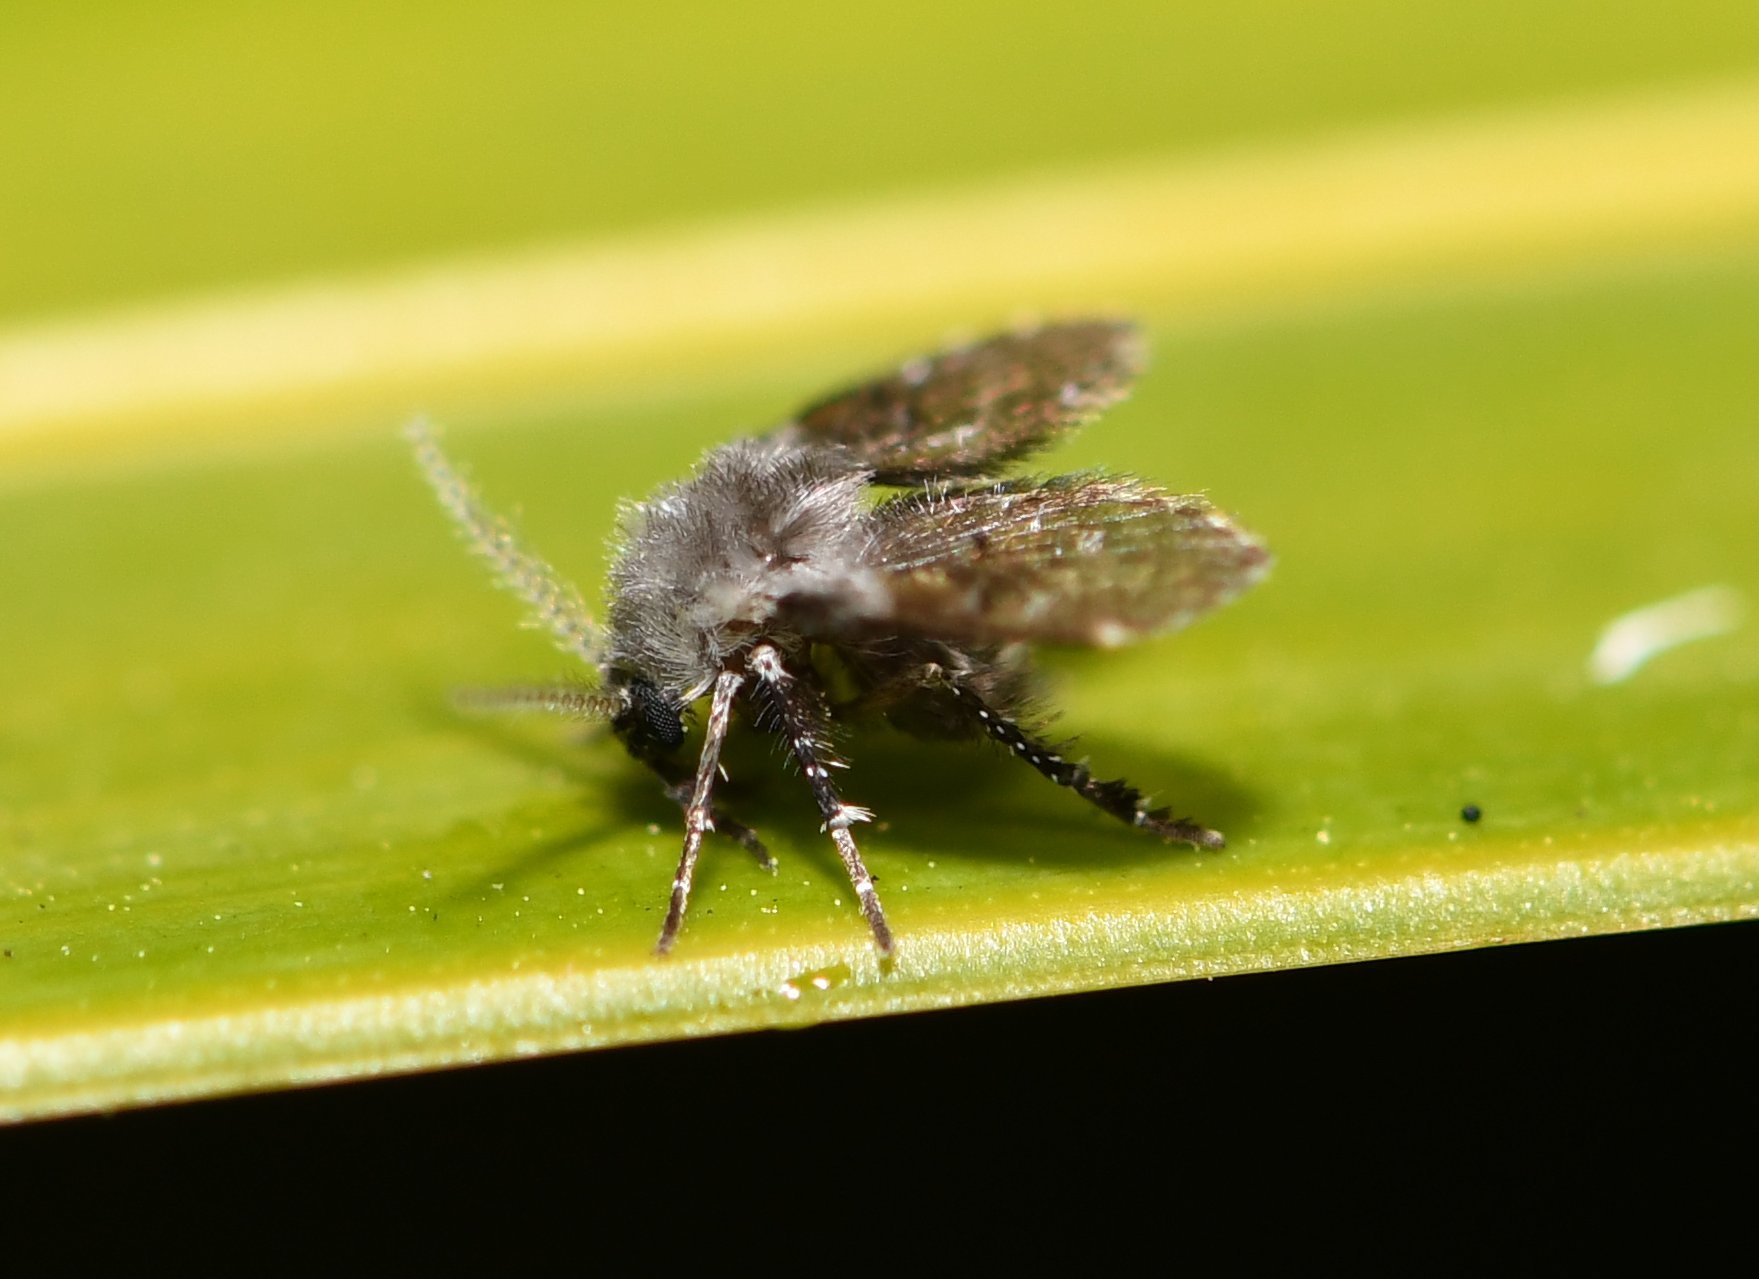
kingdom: Animalia
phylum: Arthropoda
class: Insecta
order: Diptera
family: Psychodidae
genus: Clogmia
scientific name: Clogmia albipunctatus
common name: White-spotted moth fly
